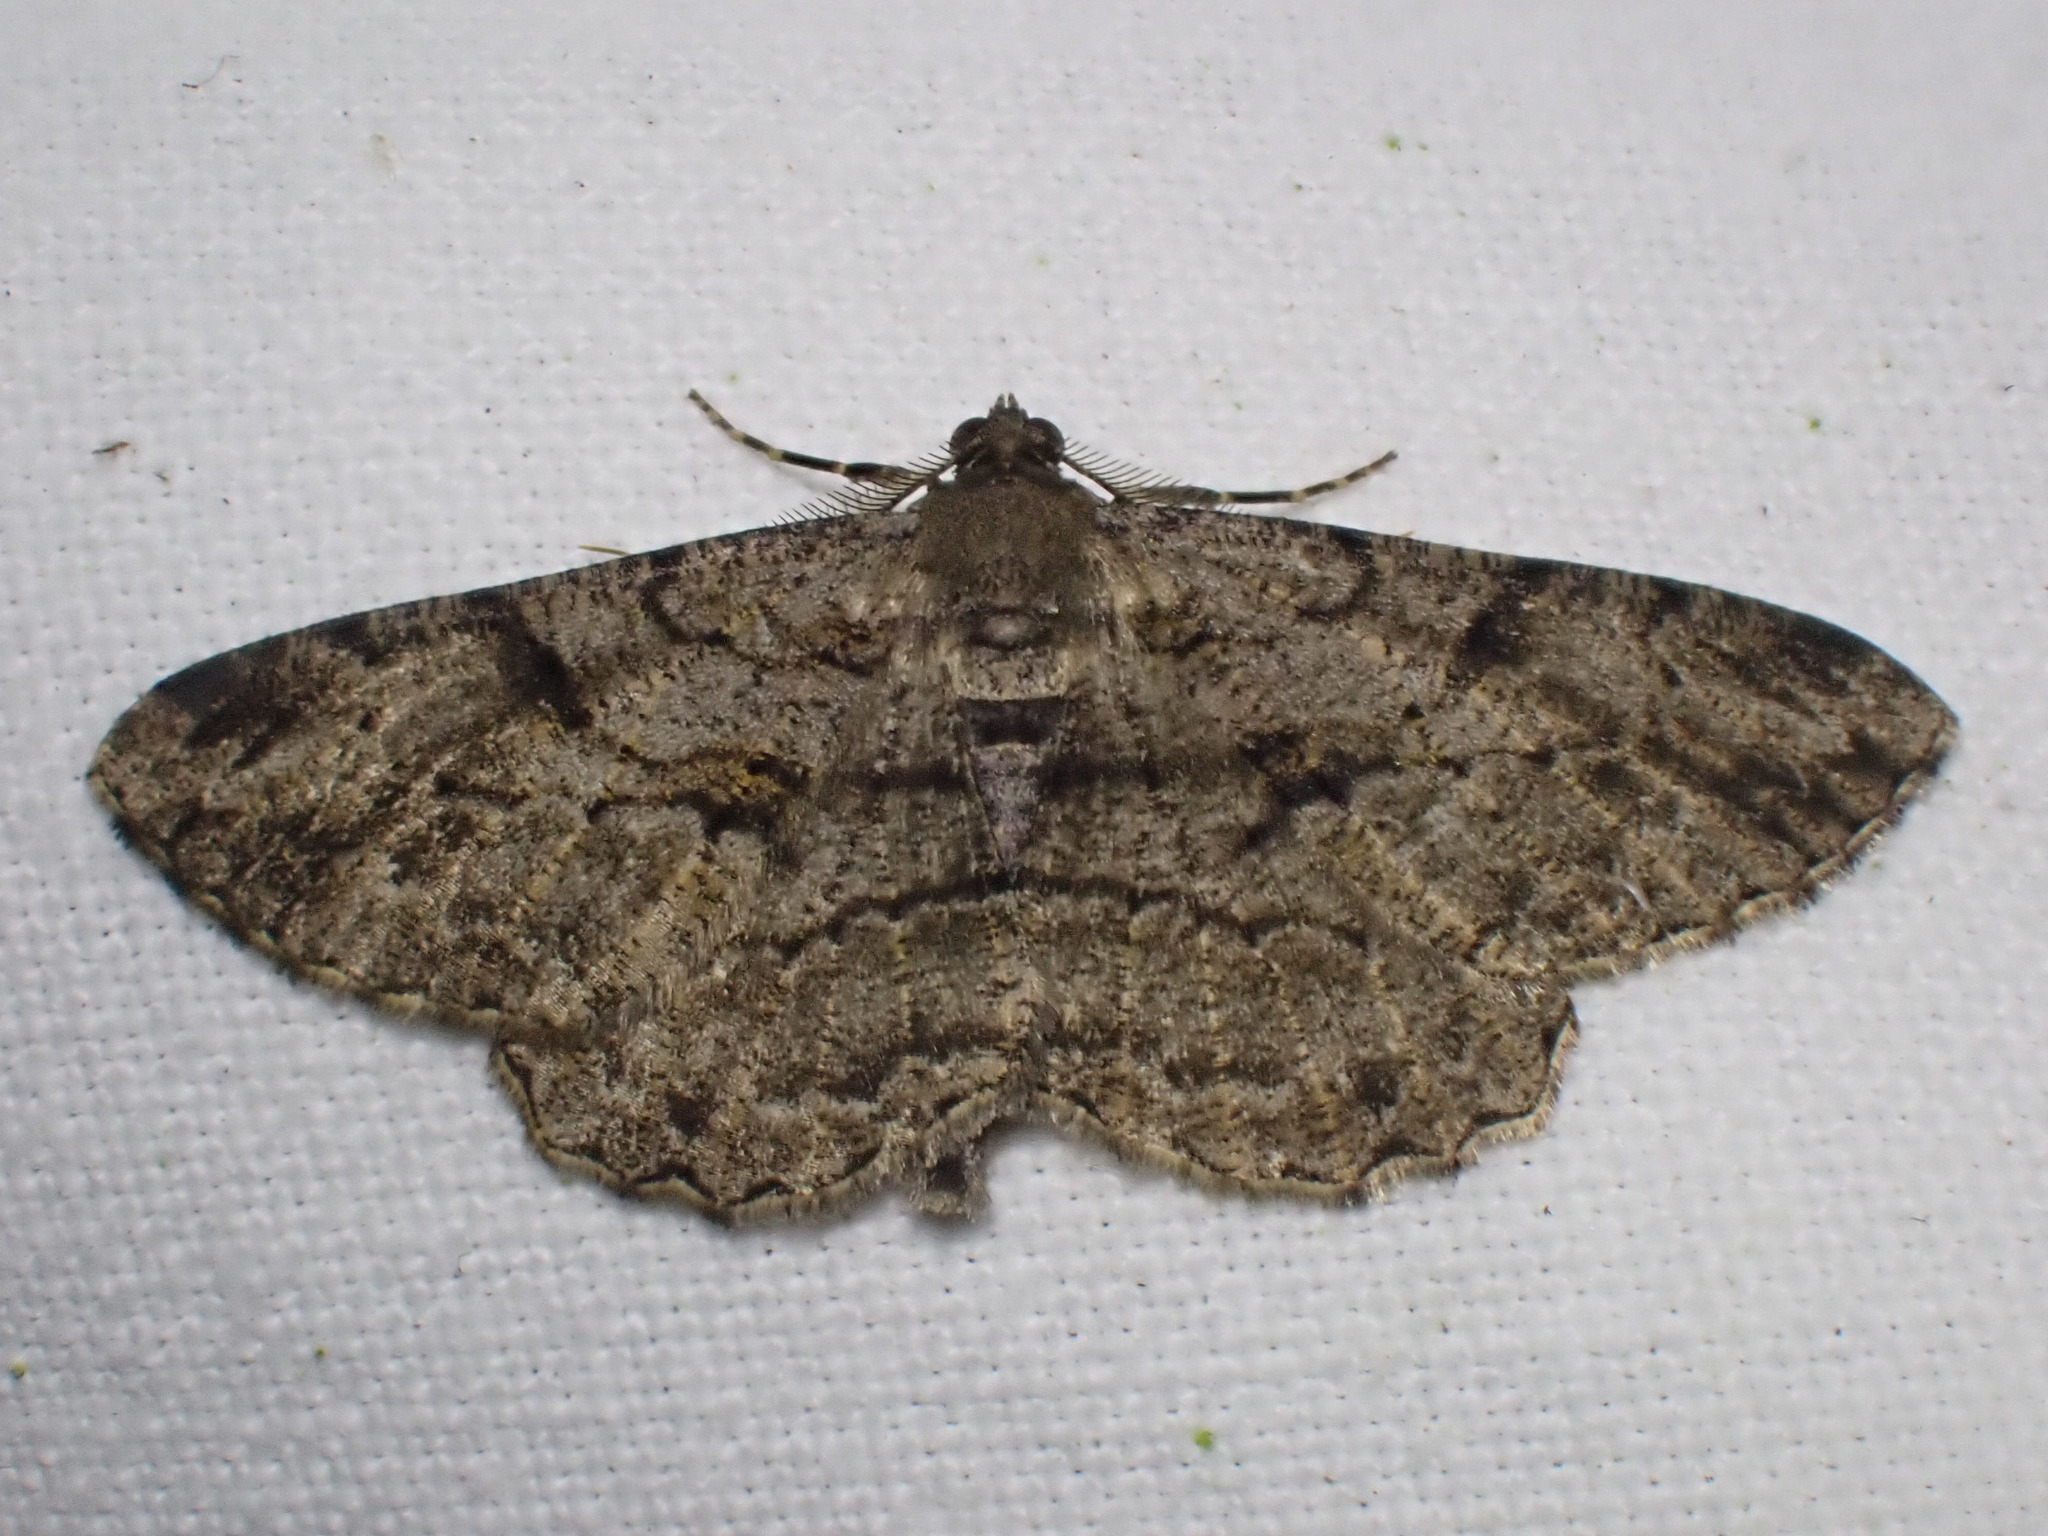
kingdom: Animalia
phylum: Arthropoda
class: Insecta
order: Lepidoptera
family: Geometridae
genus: Peribatodes
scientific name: Peribatodes rhomboidaria
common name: Willow beauty
